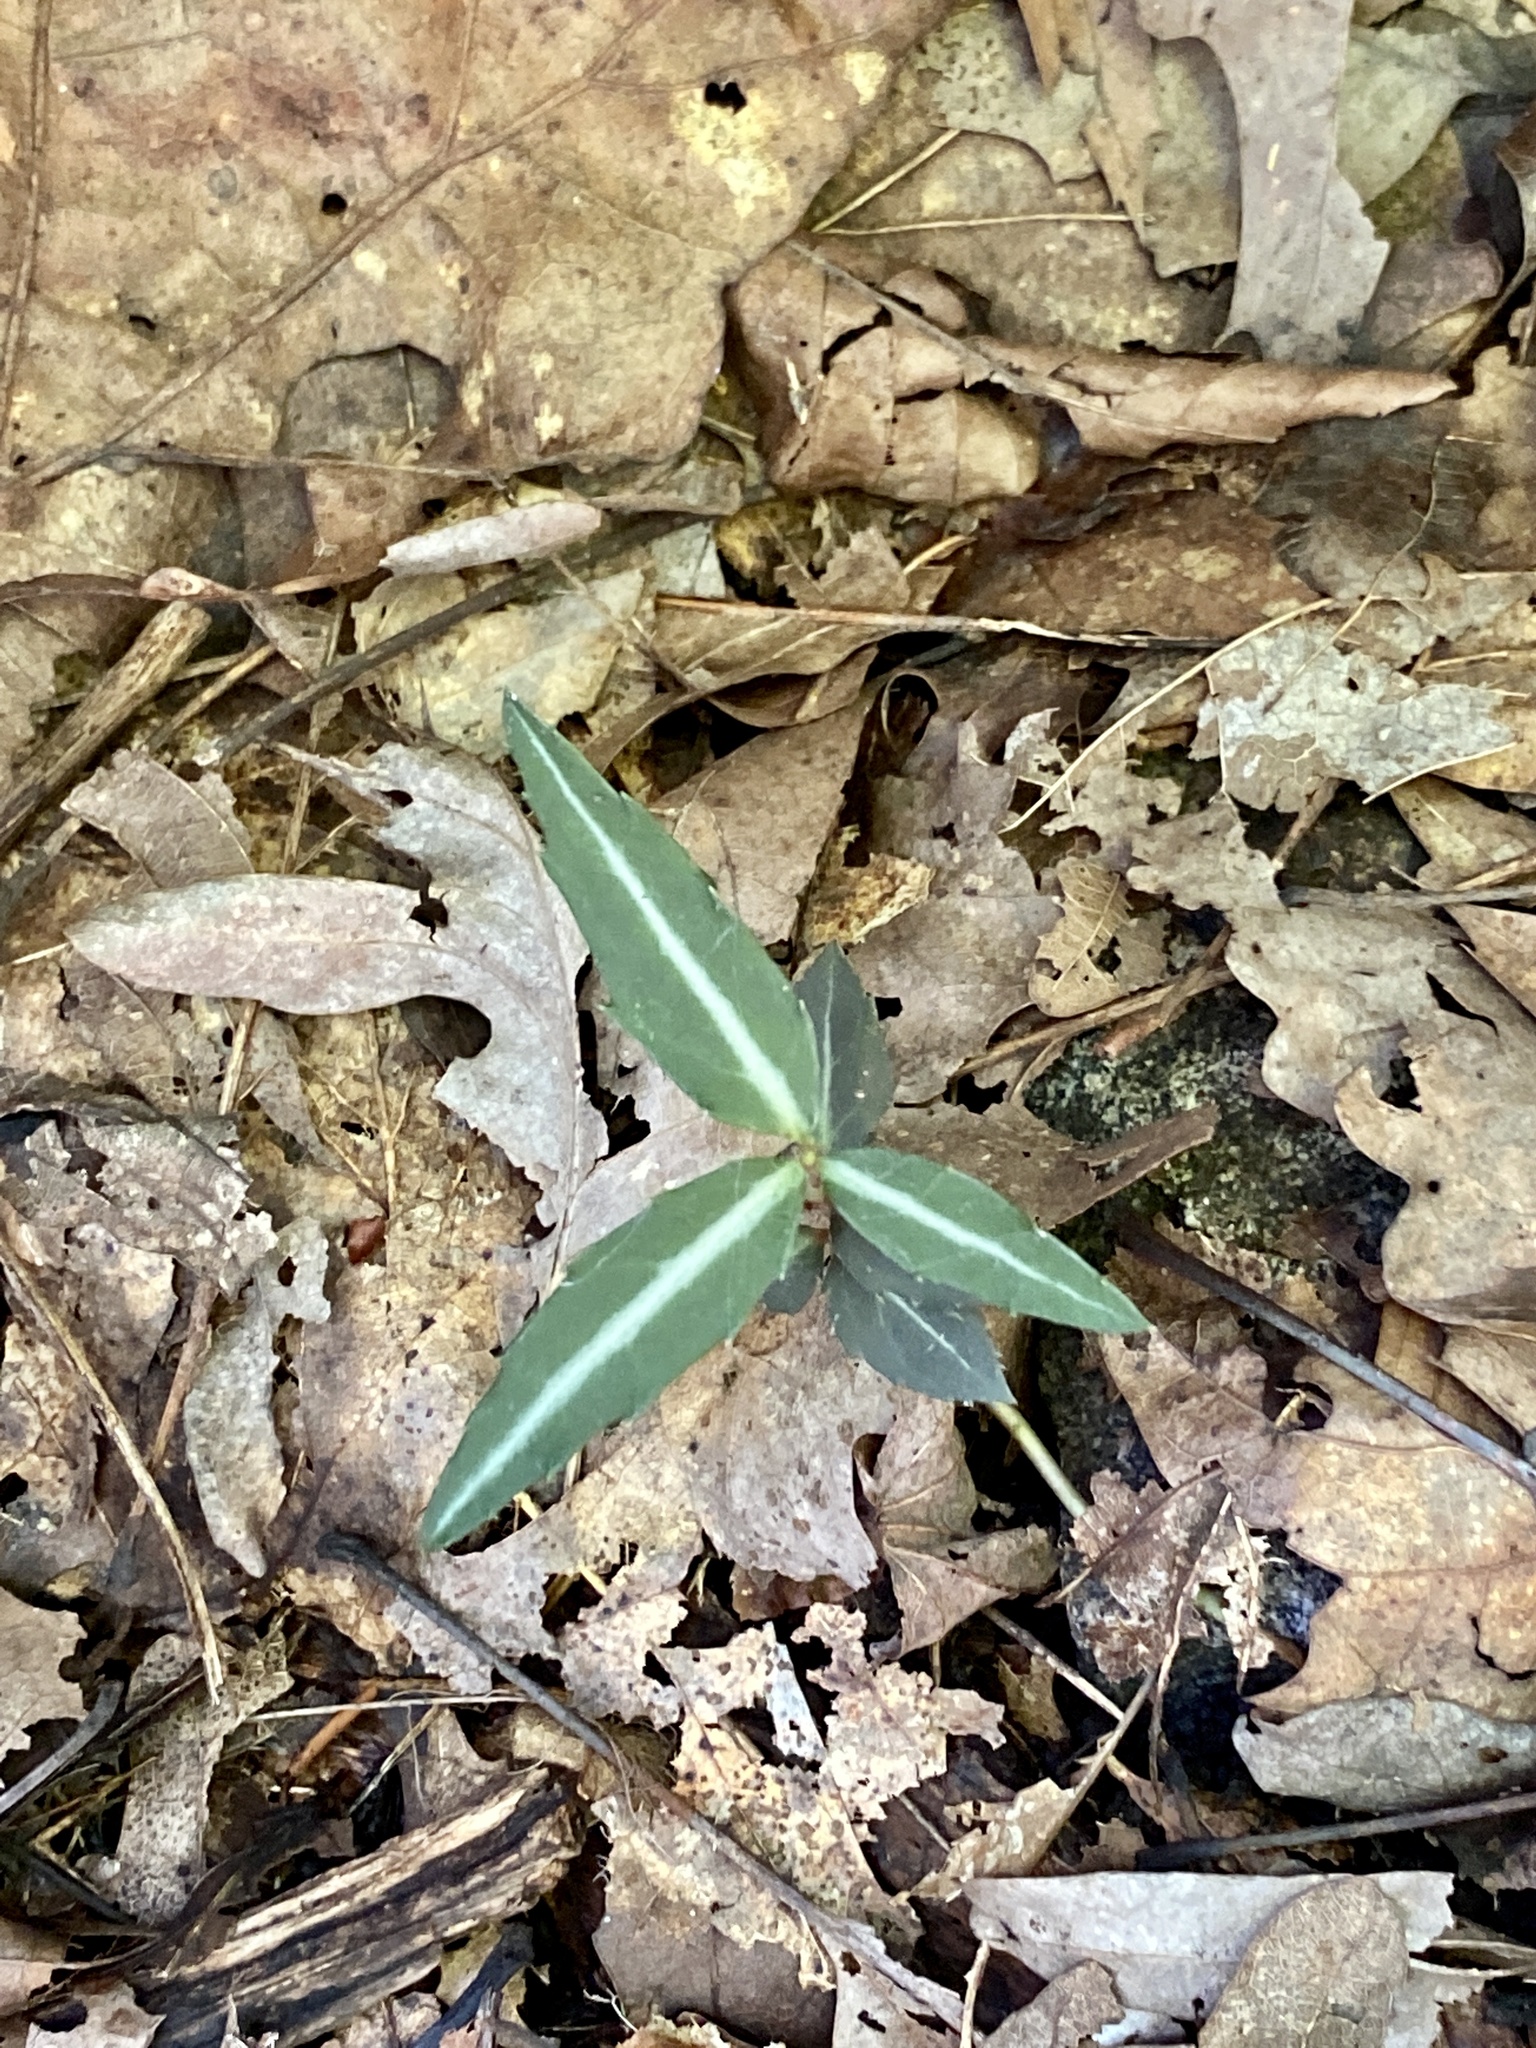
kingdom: Plantae
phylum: Tracheophyta
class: Magnoliopsida
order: Ericales
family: Ericaceae
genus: Chimaphila
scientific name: Chimaphila maculata
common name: Spotted pipsissewa
